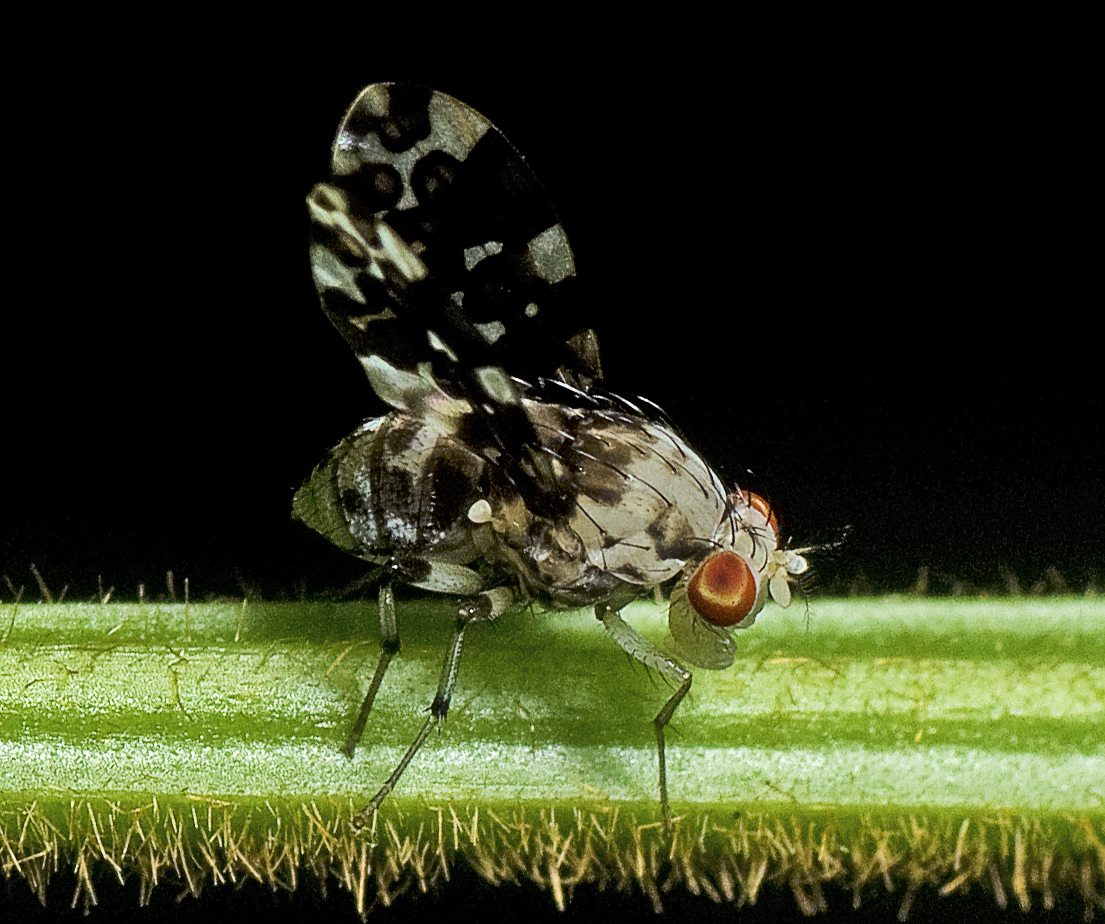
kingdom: Animalia
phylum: Arthropoda
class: Insecta
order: Diptera
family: Lauxaniidae
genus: Mettinia
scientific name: Mettinia suboceliifera
